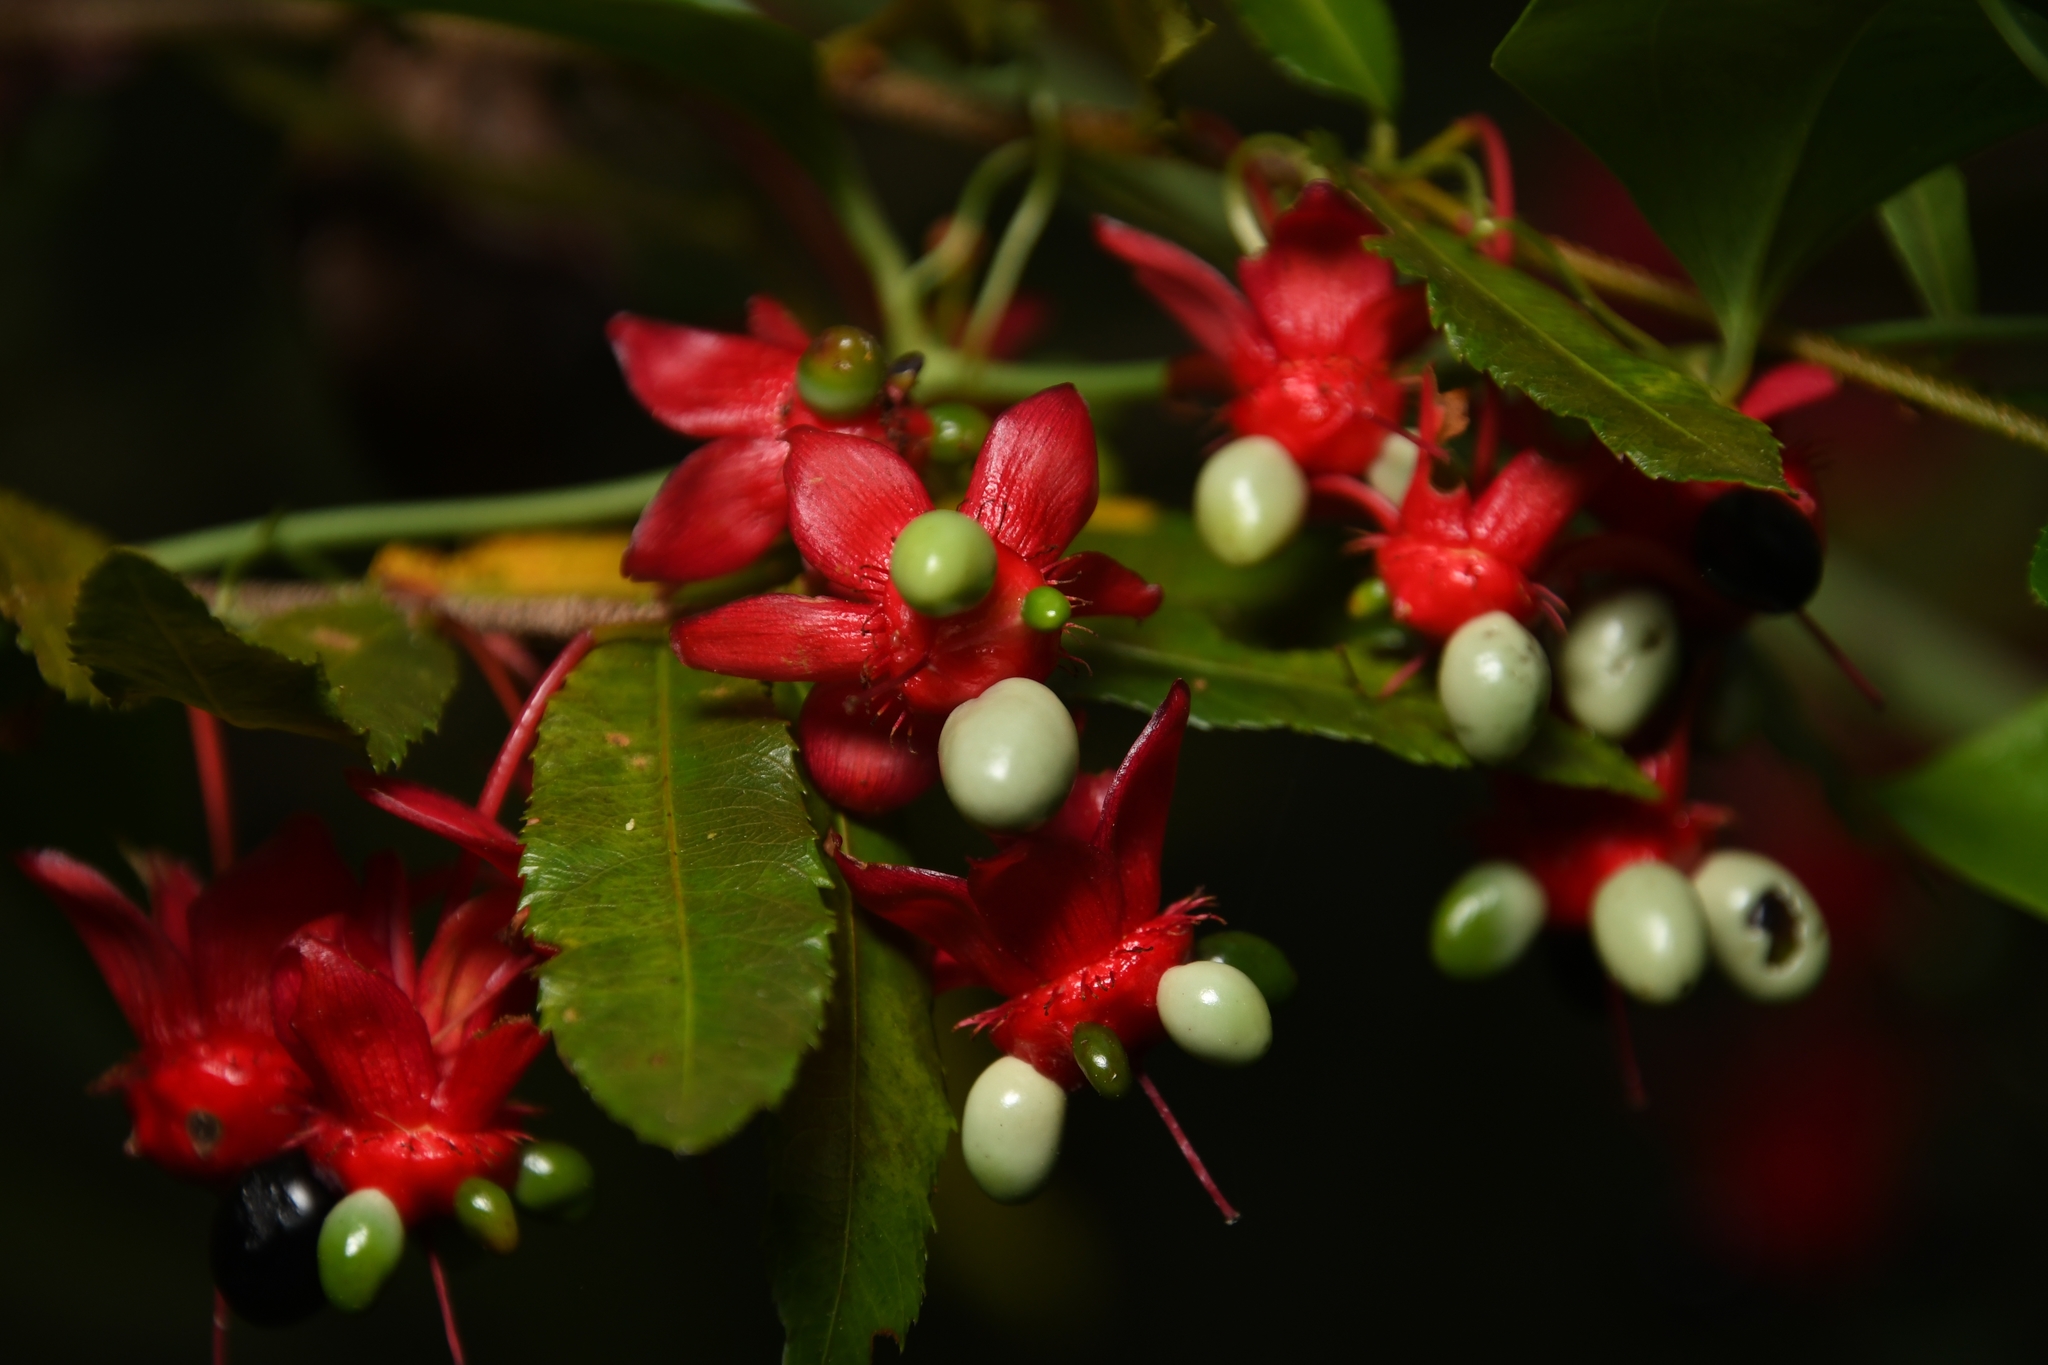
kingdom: Plantae
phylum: Tracheophyta
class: Magnoliopsida
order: Malpighiales
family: Ochnaceae
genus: Ochna
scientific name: Ochna serrulata
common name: Mickey mouse plant
